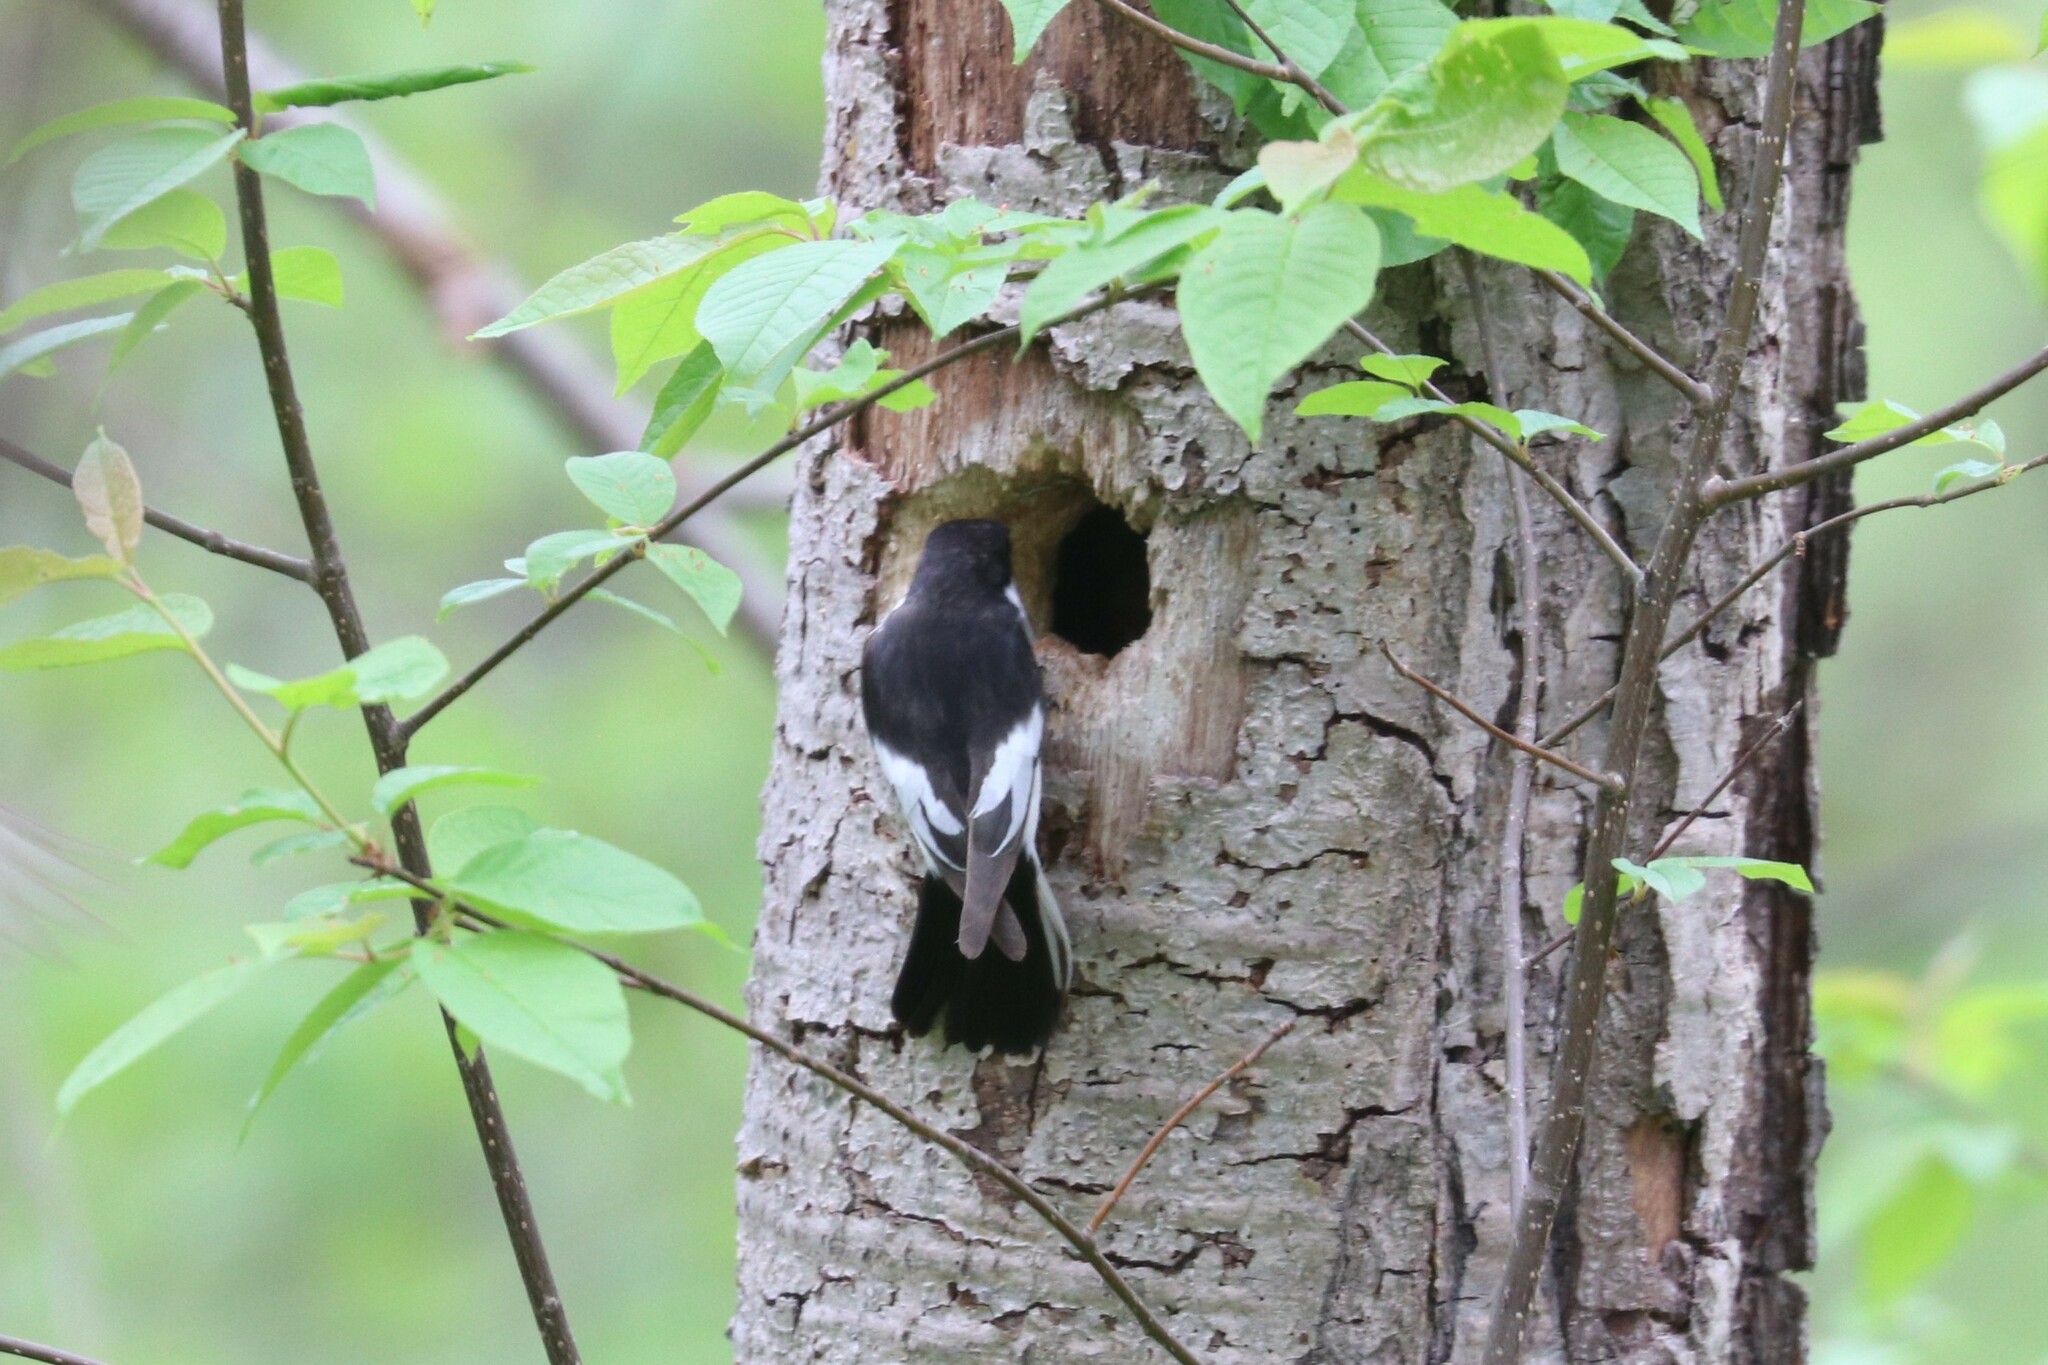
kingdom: Animalia
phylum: Chordata
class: Aves
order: Passeriformes
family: Muscicapidae
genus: Ficedula
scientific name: Ficedula hypoleuca
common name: European pied flycatcher
